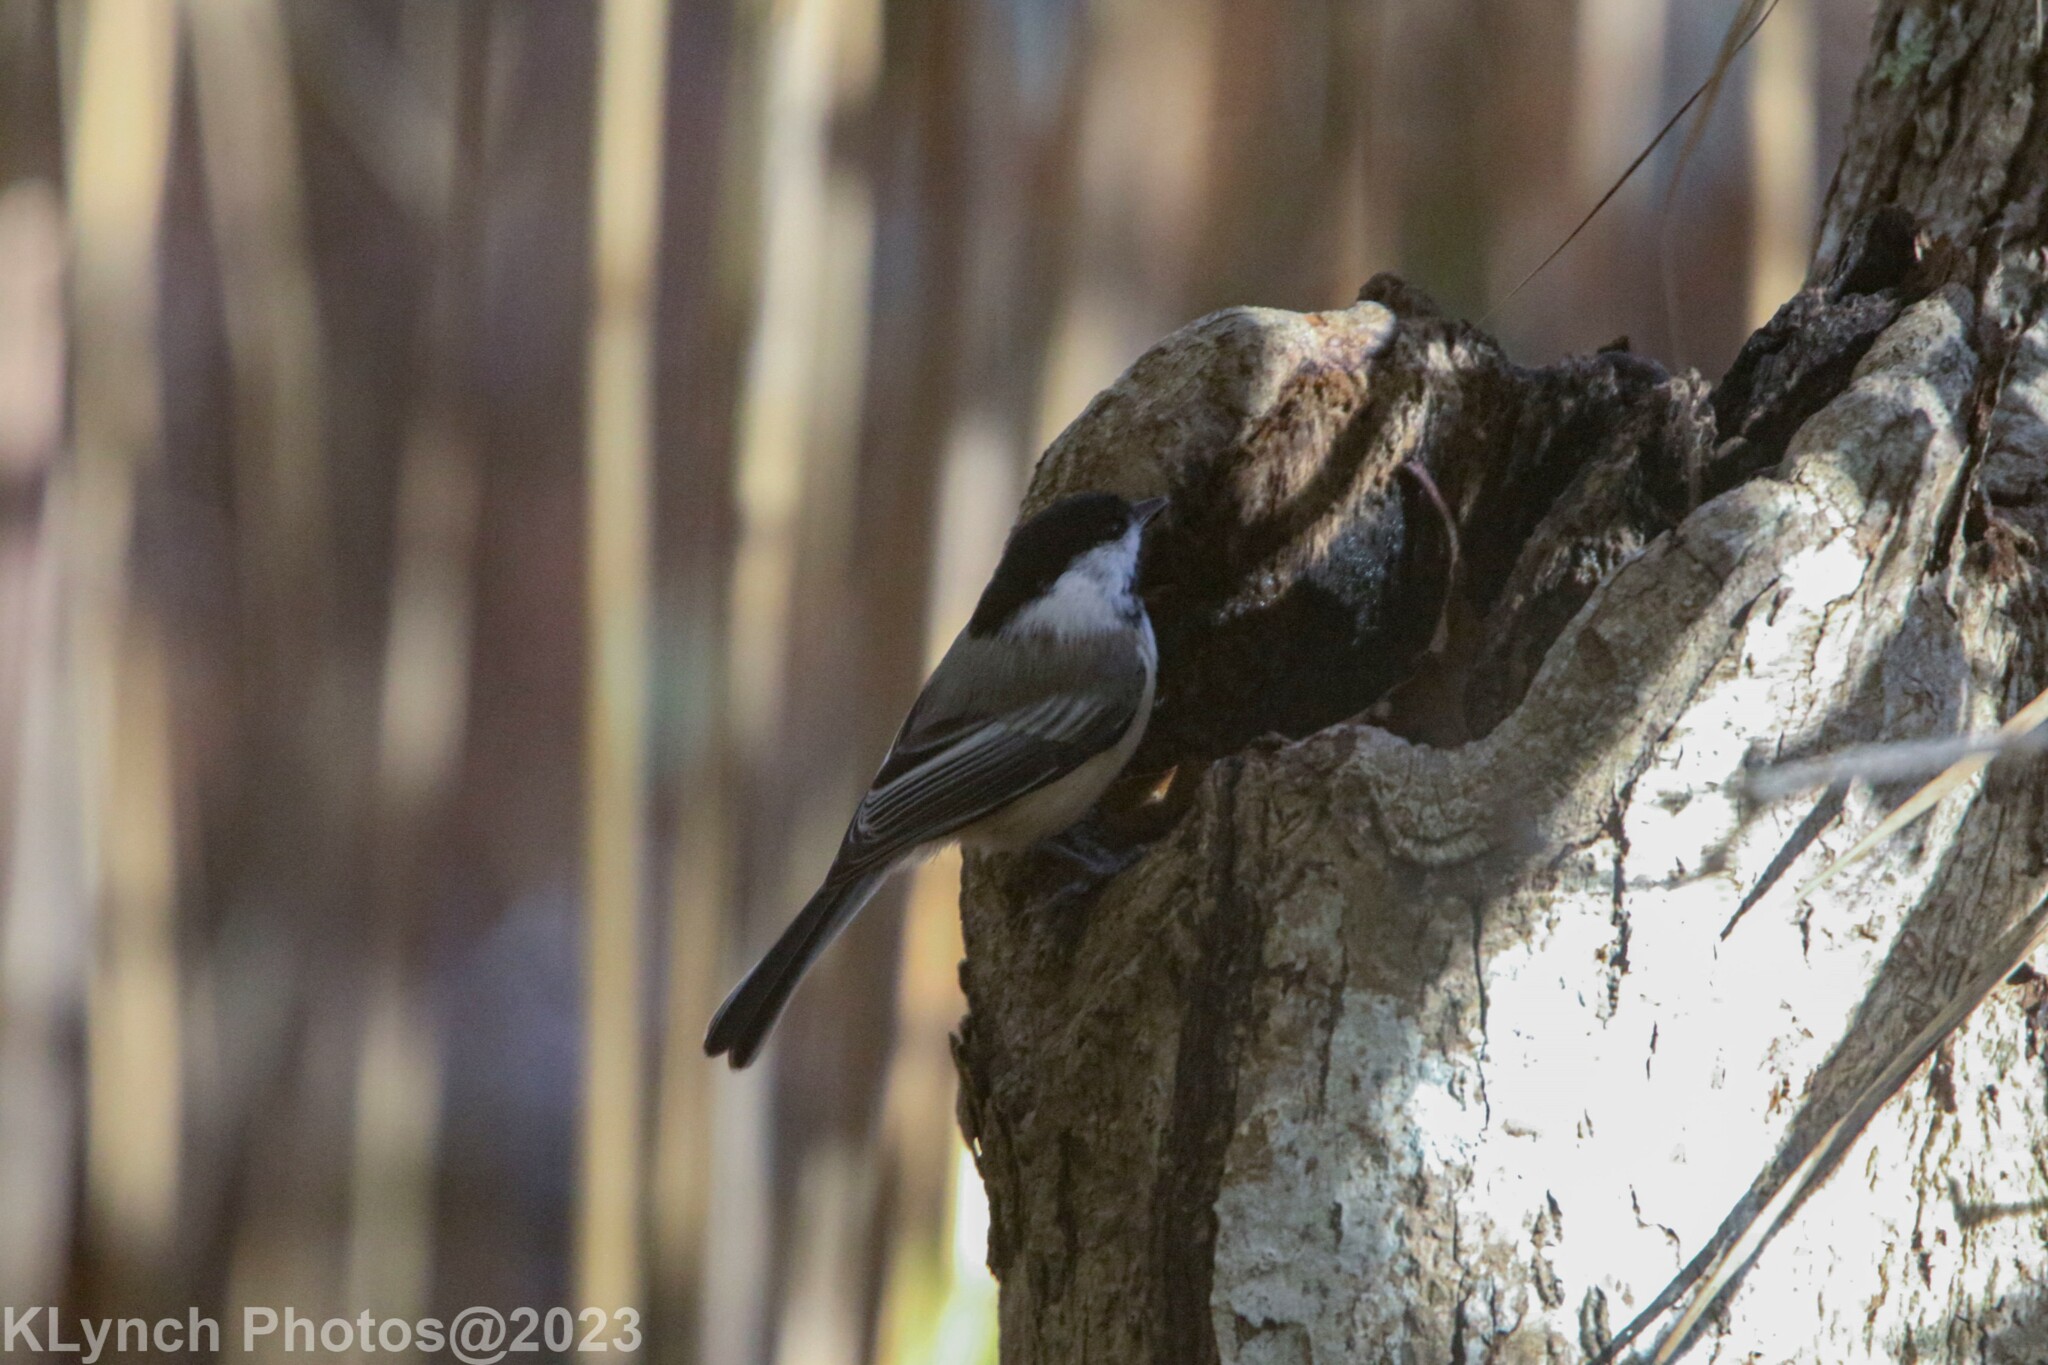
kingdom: Animalia
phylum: Chordata
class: Aves
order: Passeriformes
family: Paridae
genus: Poecile
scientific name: Poecile atricapillus
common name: Black-capped chickadee
